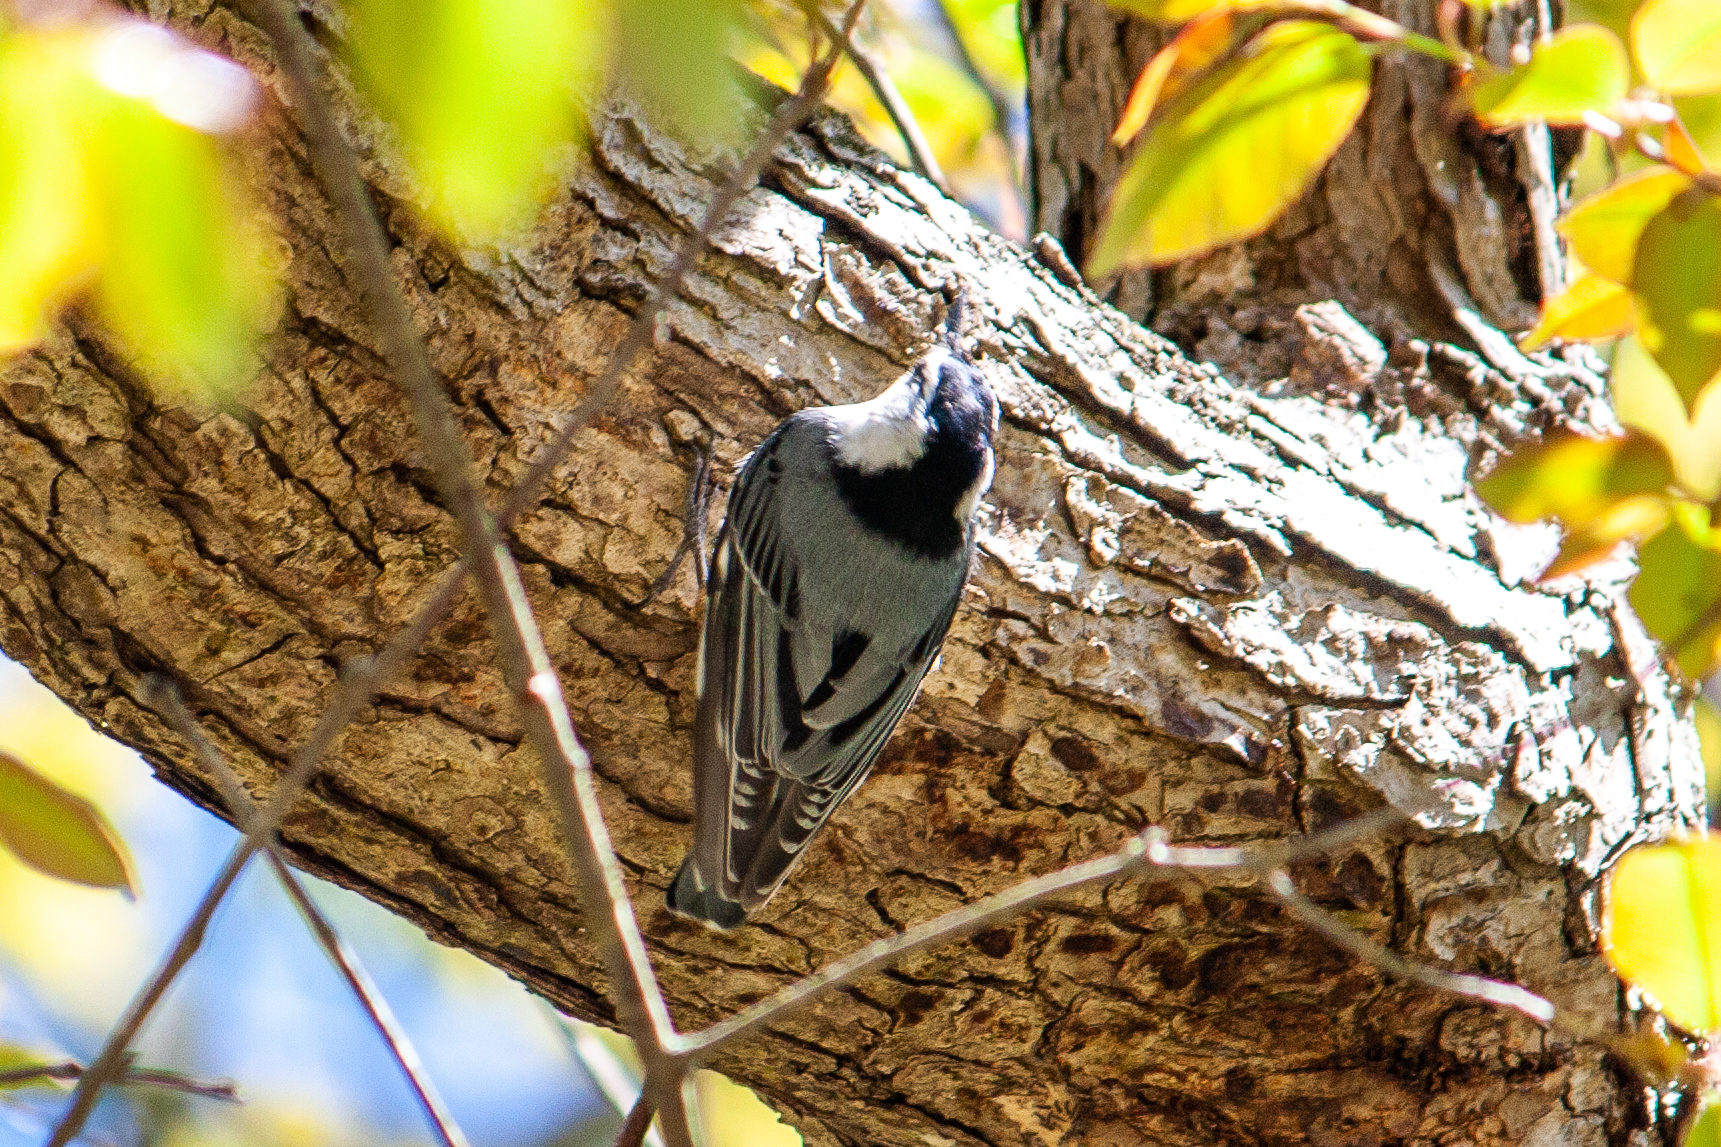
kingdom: Animalia
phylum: Chordata
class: Aves
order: Passeriformes
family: Sittidae
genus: Sitta
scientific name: Sitta carolinensis
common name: White-breasted nuthatch
